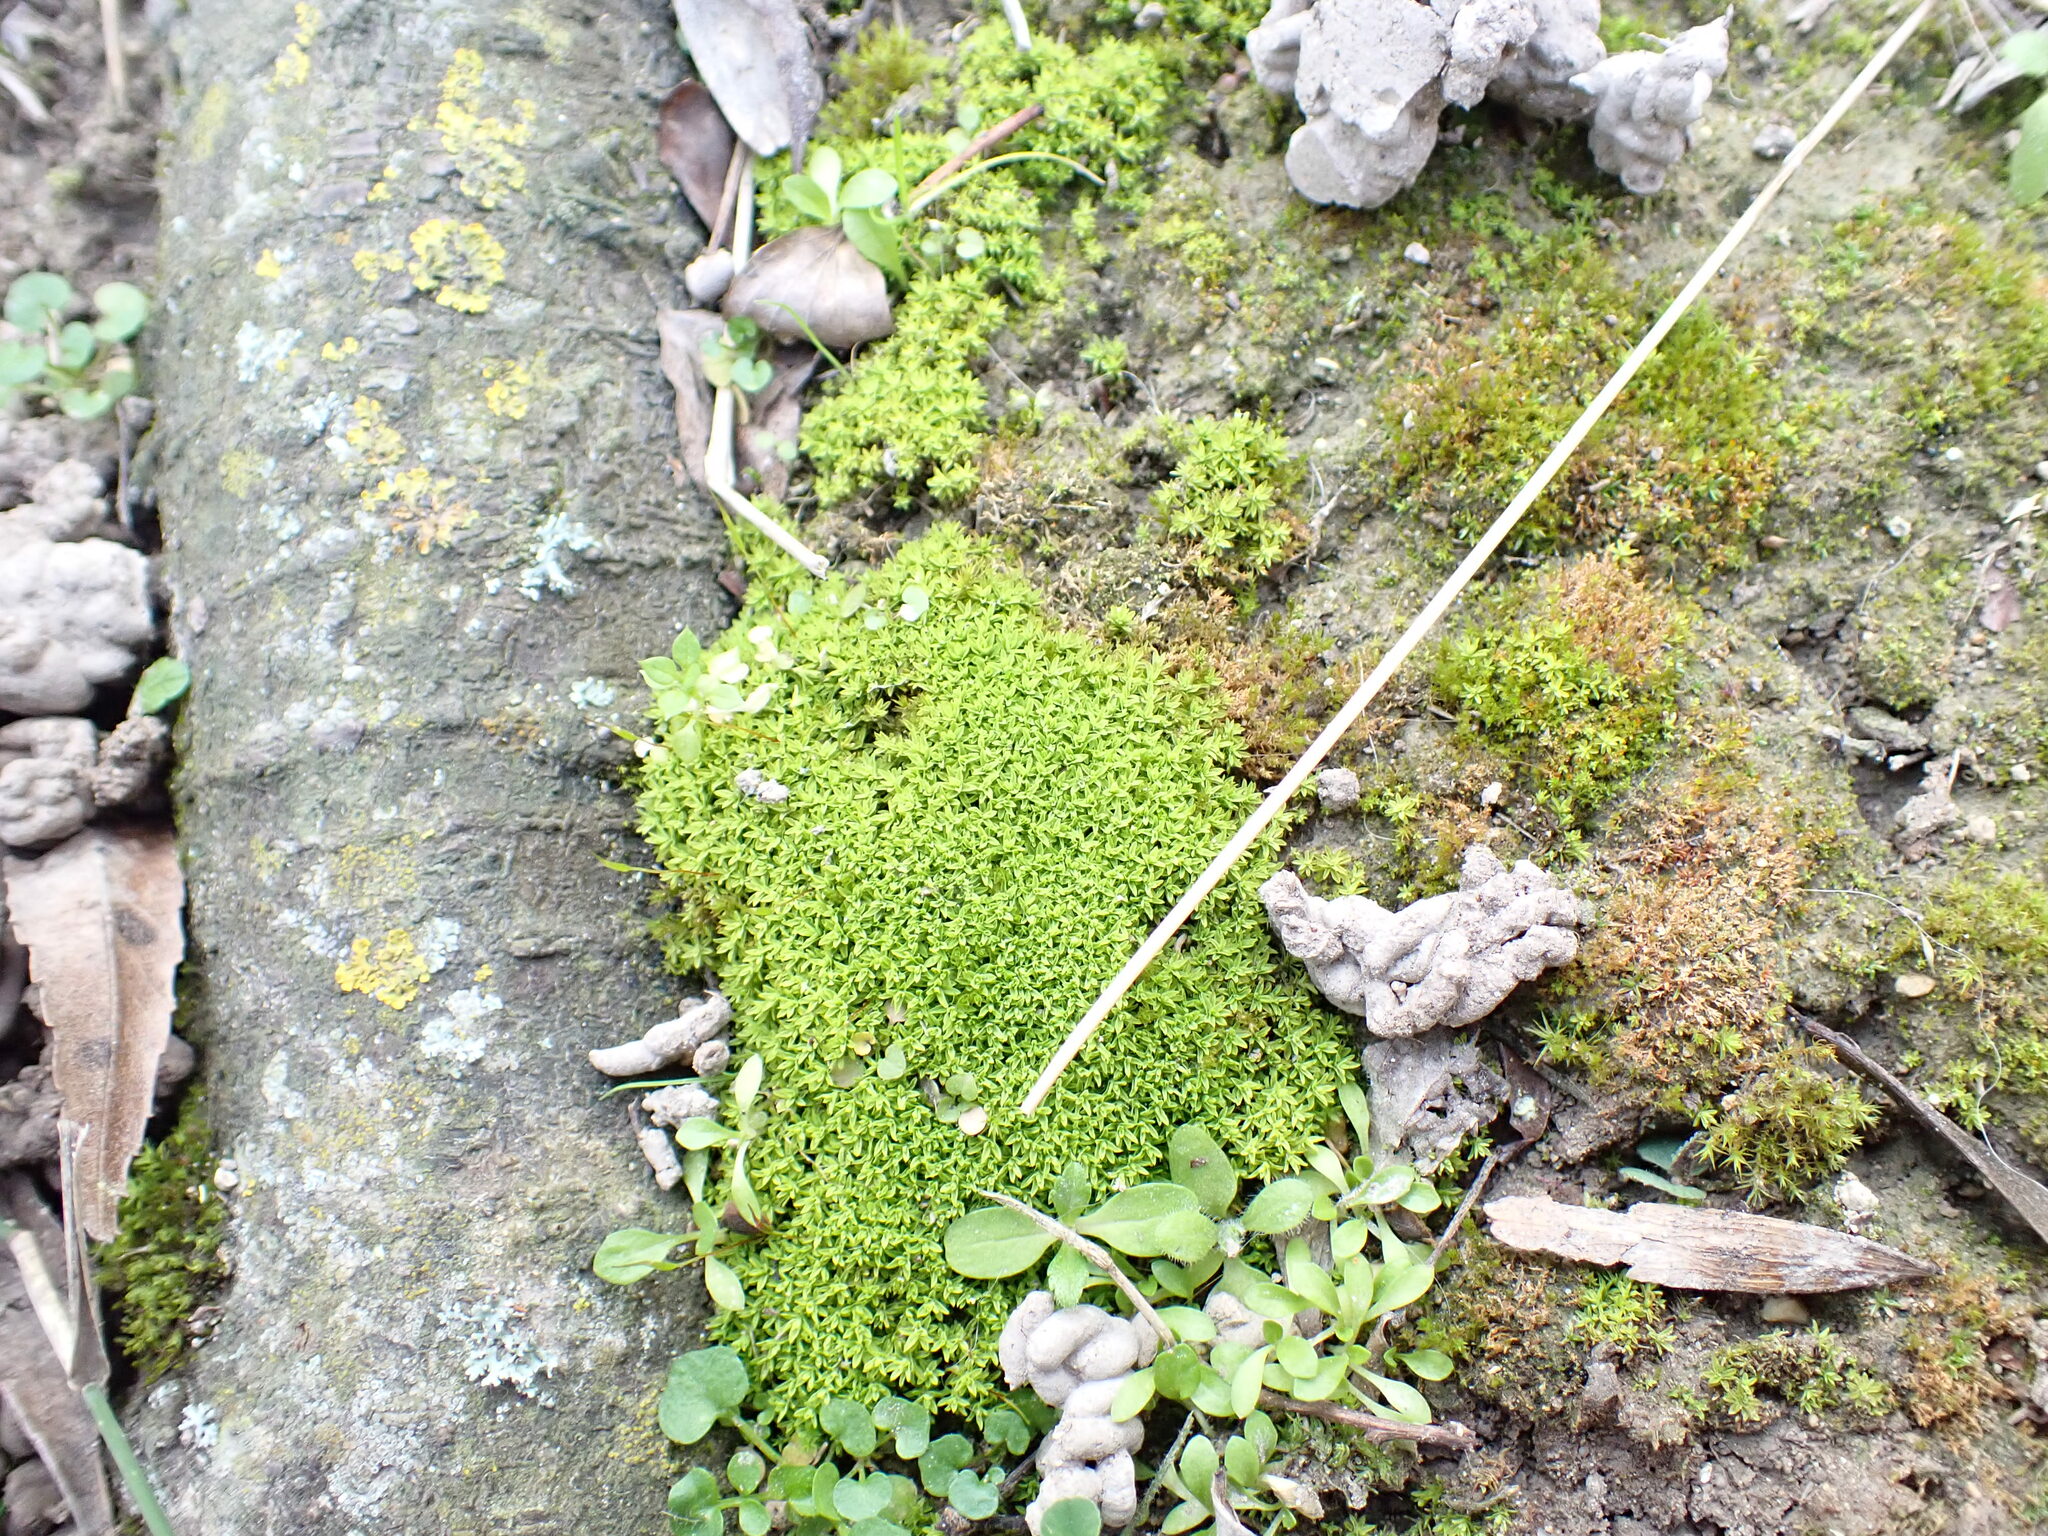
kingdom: Plantae
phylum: Bryophyta
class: Bryopsida
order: Pottiales
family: Pottiaceae
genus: Barbula
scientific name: Barbula unguiculata
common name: Prickly beard moss
